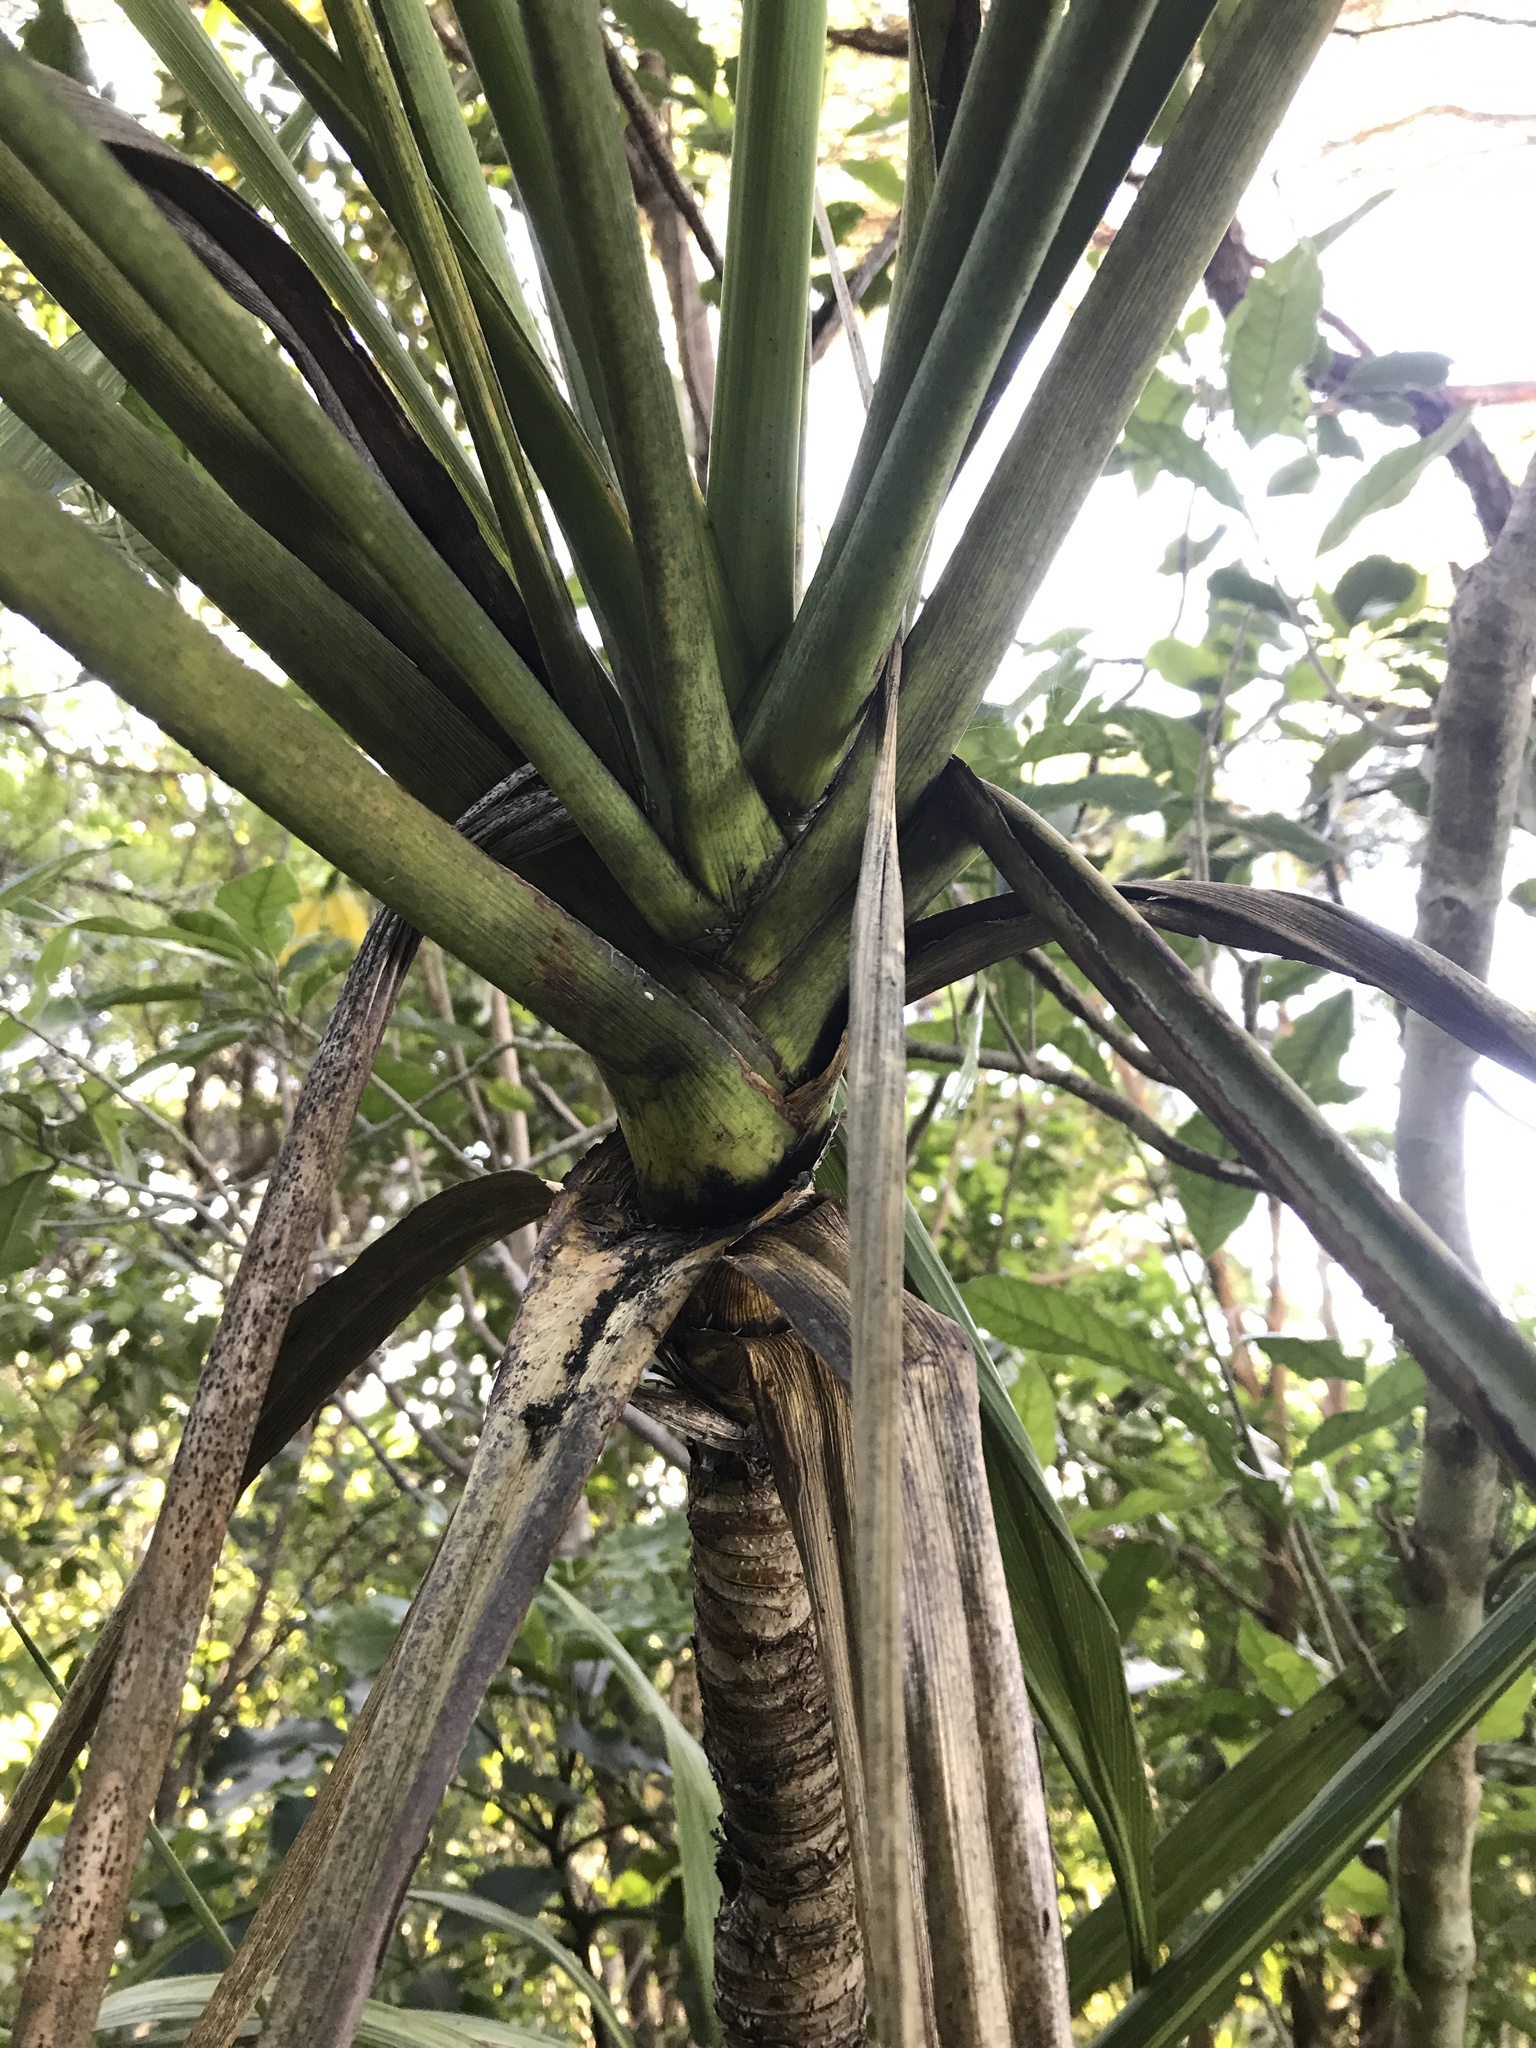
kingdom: Plantae
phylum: Tracheophyta
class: Liliopsida
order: Asparagales
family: Asparagaceae
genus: Cordyline
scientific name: Cordyline banksii
